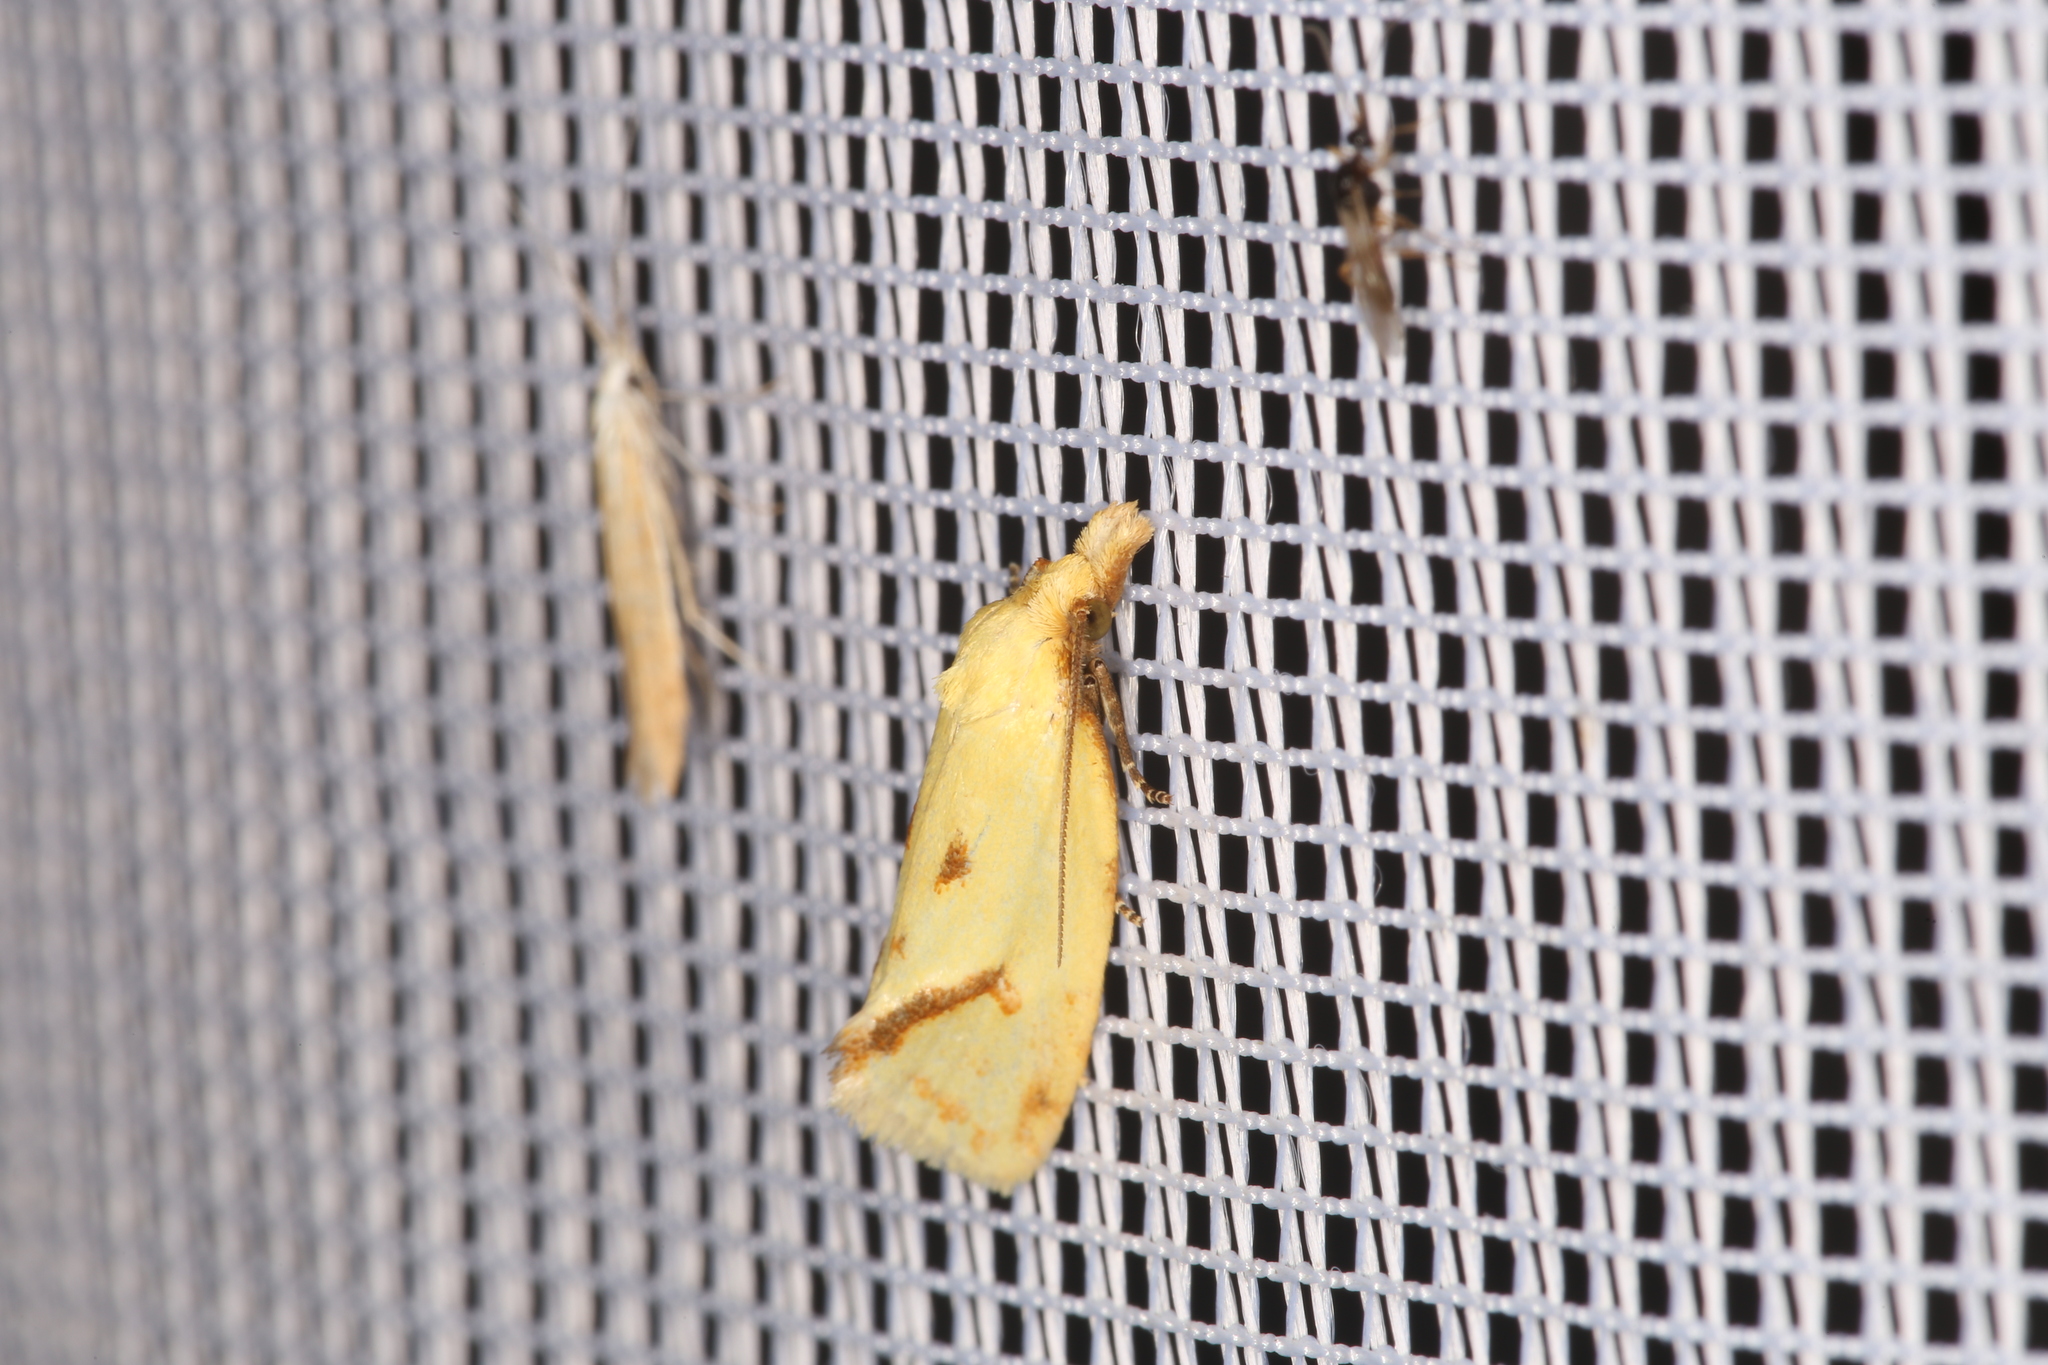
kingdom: Animalia
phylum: Arthropoda
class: Insecta
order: Lepidoptera
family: Tortricidae
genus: Agapeta
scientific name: Agapeta hamana
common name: Common yellow conch
